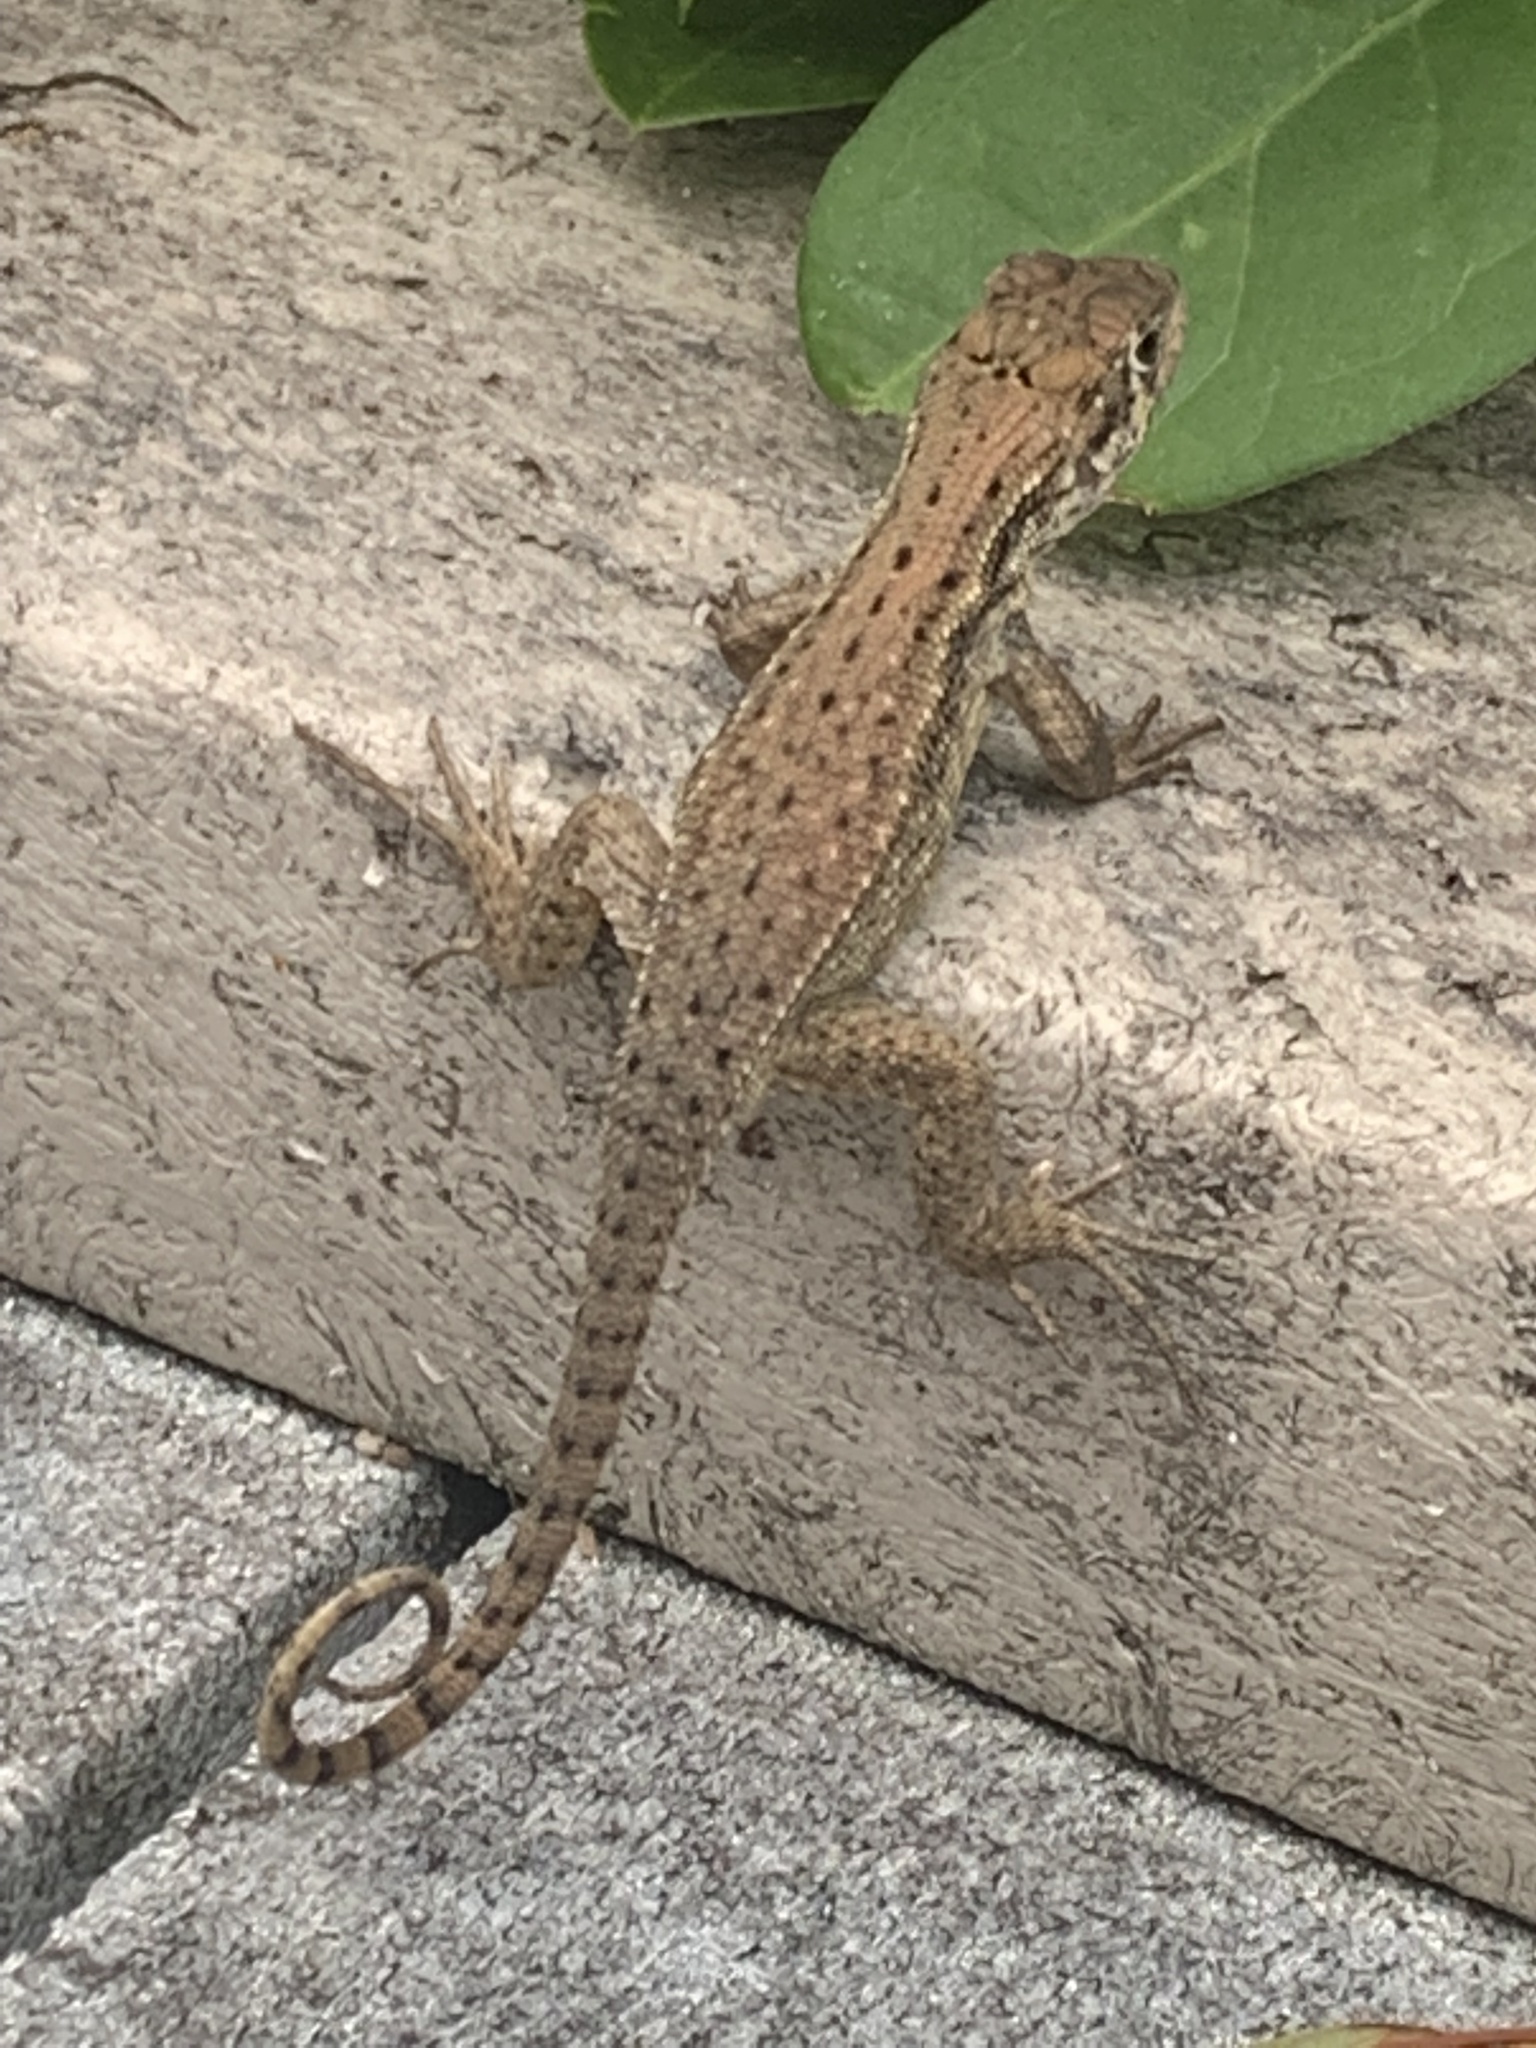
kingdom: Animalia
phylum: Chordata
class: Squamata
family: Leiocephalidae
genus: Leiocephalus
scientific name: Leiocephalus carinatus
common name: Northern curly-tailed lizard
